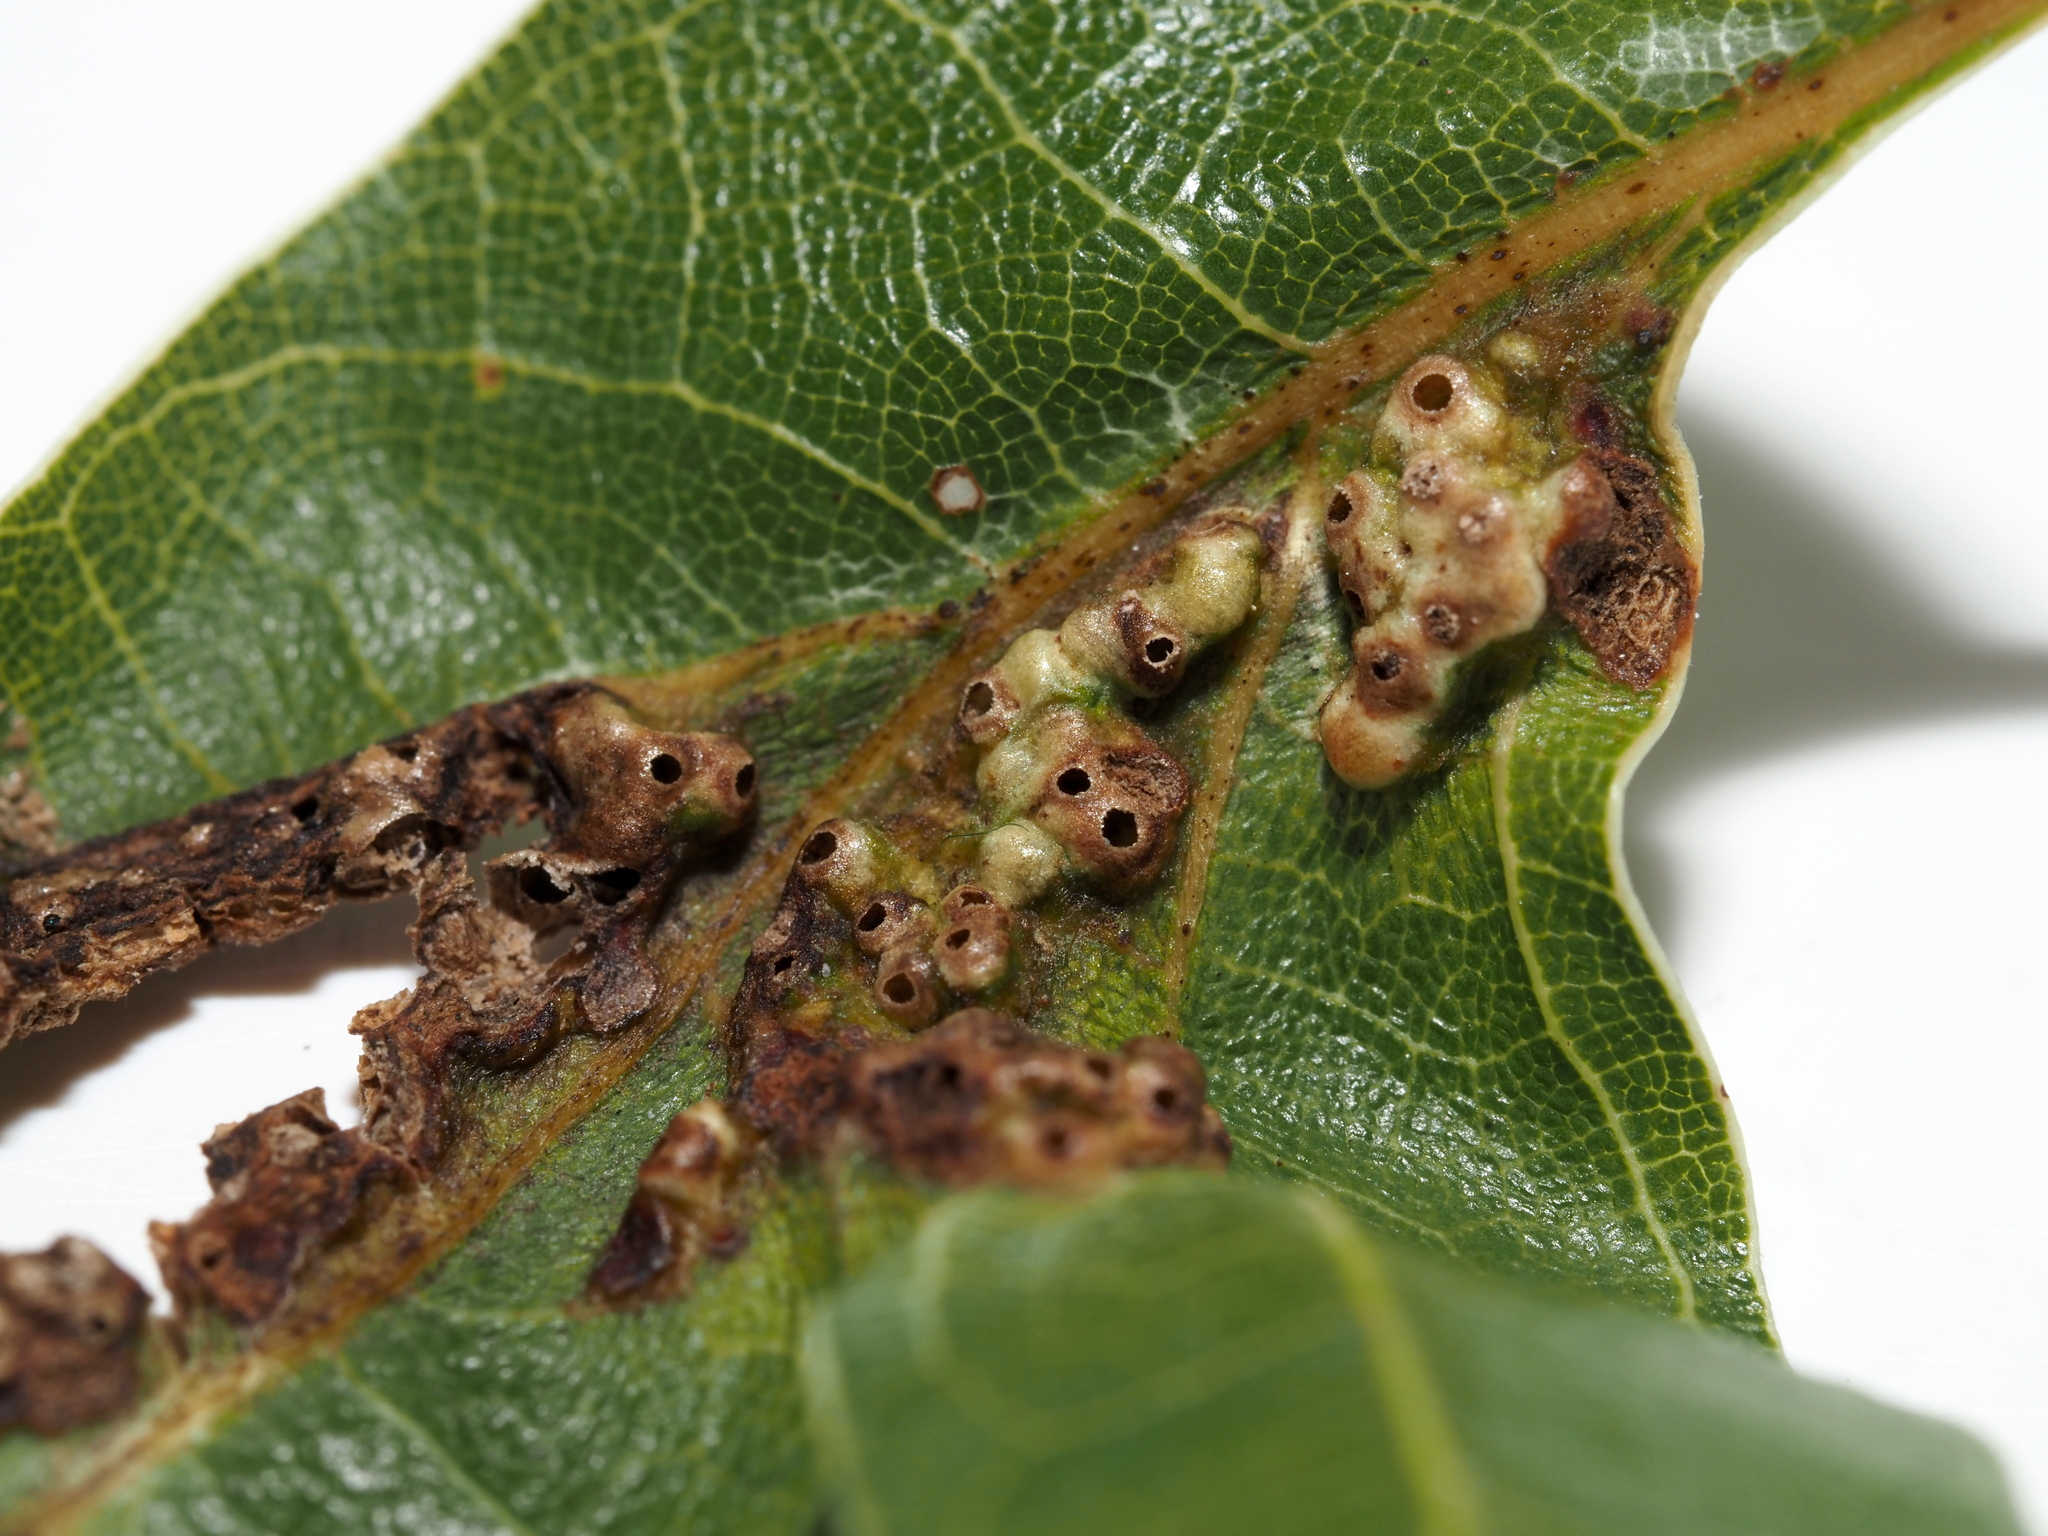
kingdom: Animalia
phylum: Arthropoda
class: Insecta
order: Hymenoptera
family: Cynipidae
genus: Melikaiella
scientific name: Melikaiella ostensackeni
